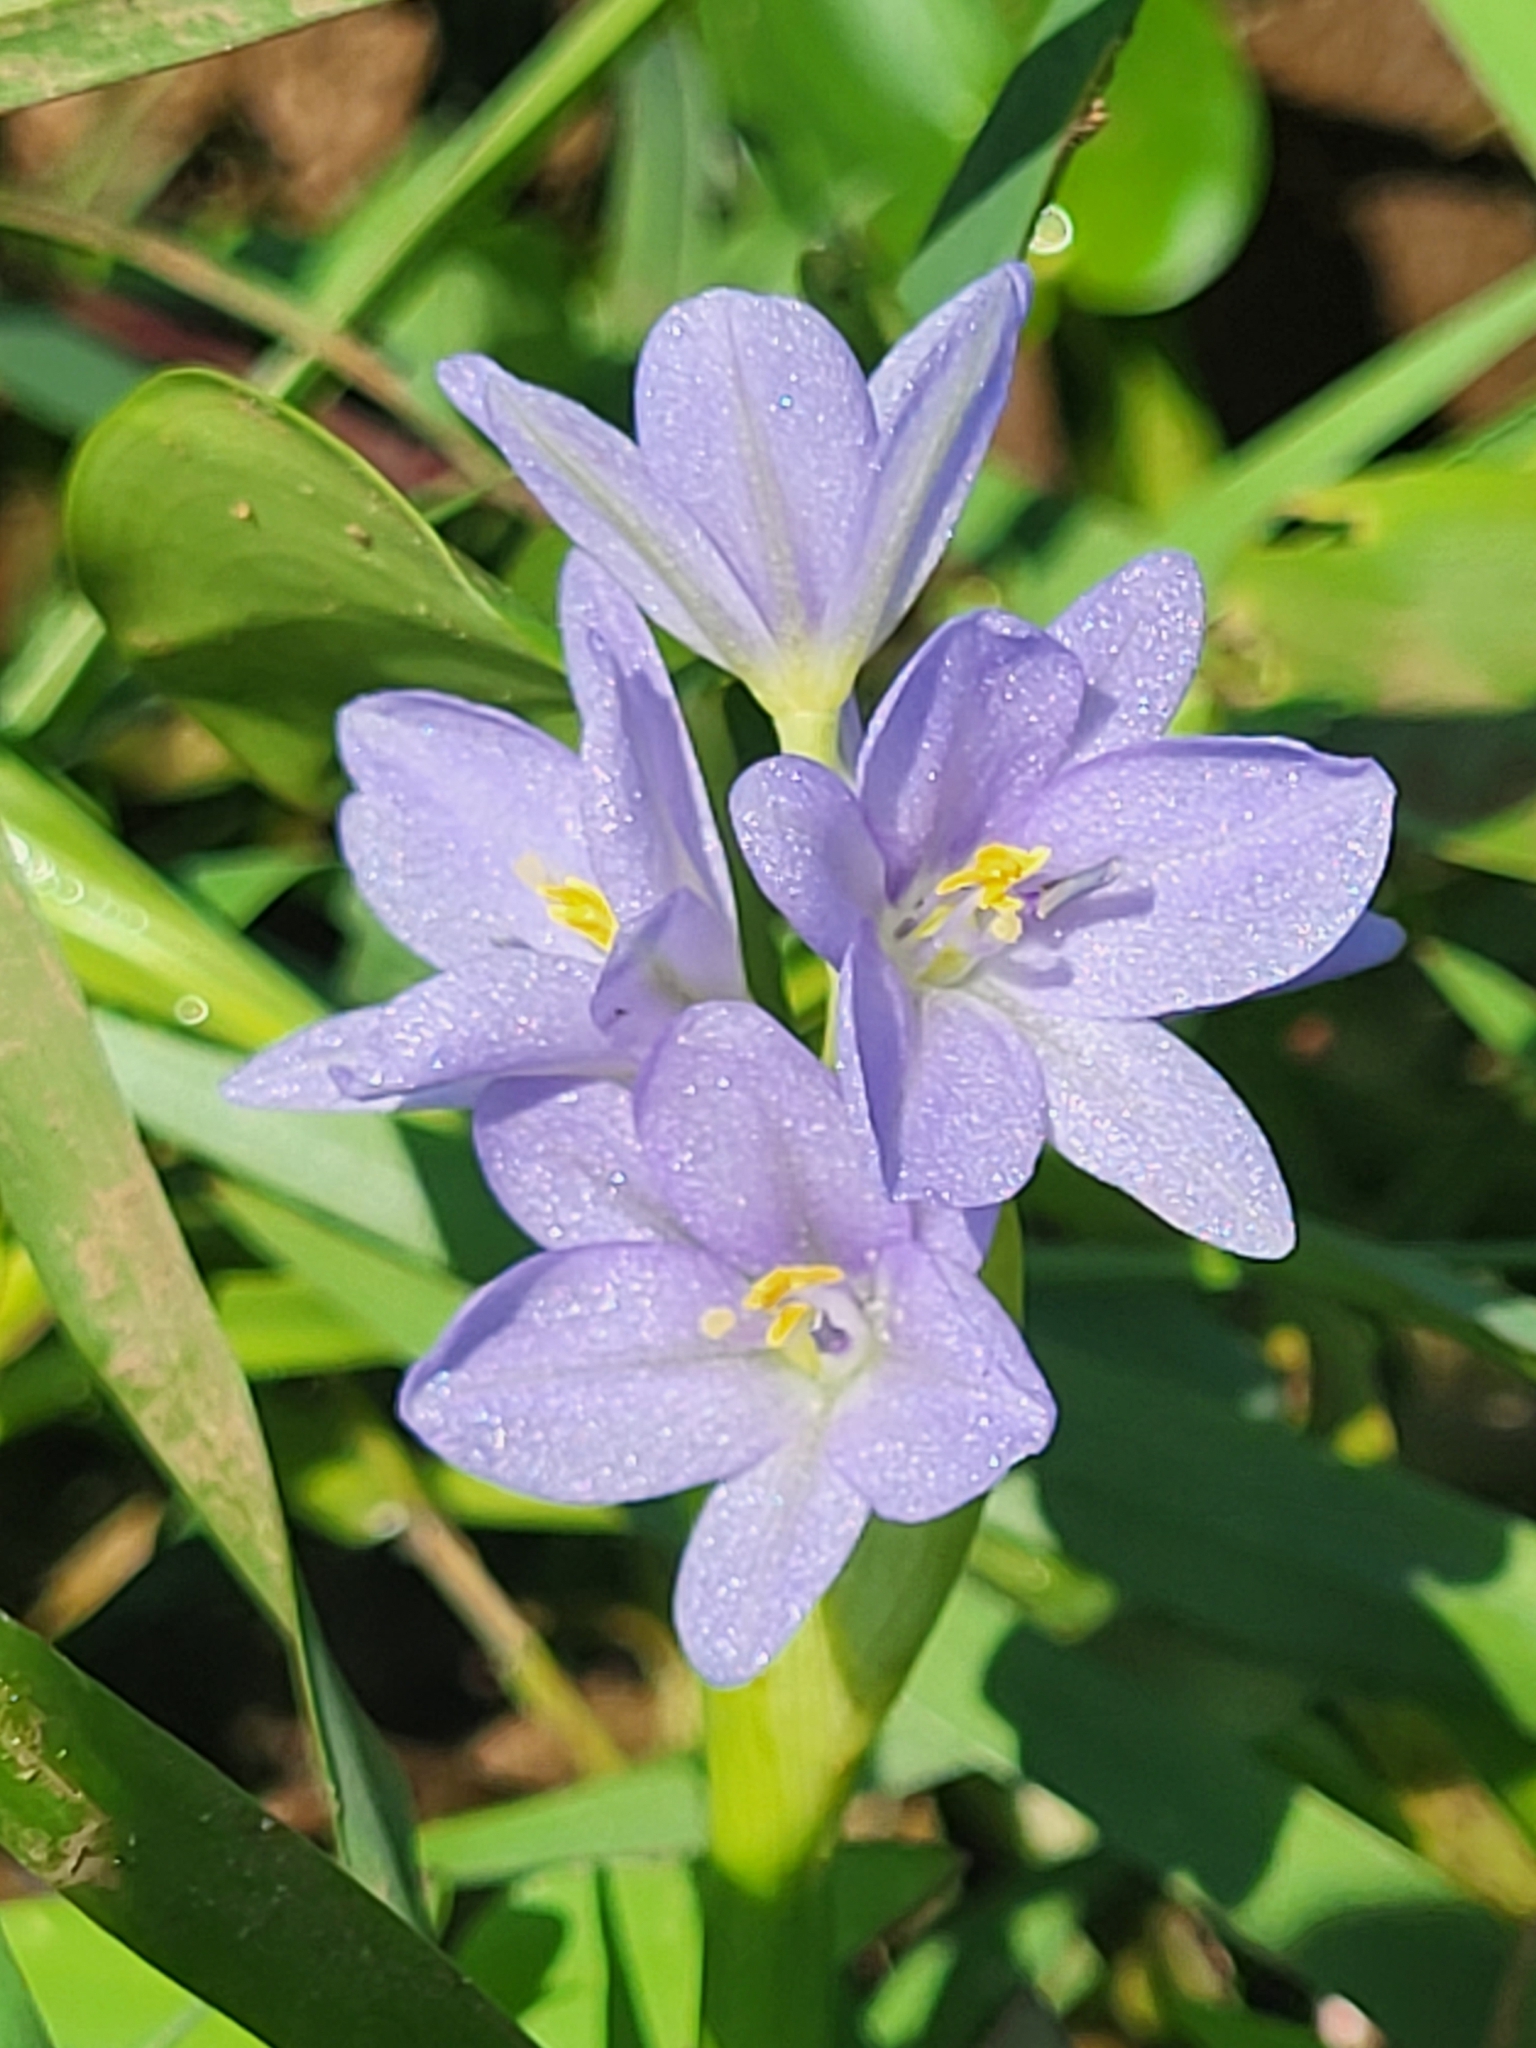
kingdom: Plantae
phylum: Tracheophyta
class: Liliopsida
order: Commelinales
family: Pontederiaceae
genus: Pontederia
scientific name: Pontederia vaginalis
